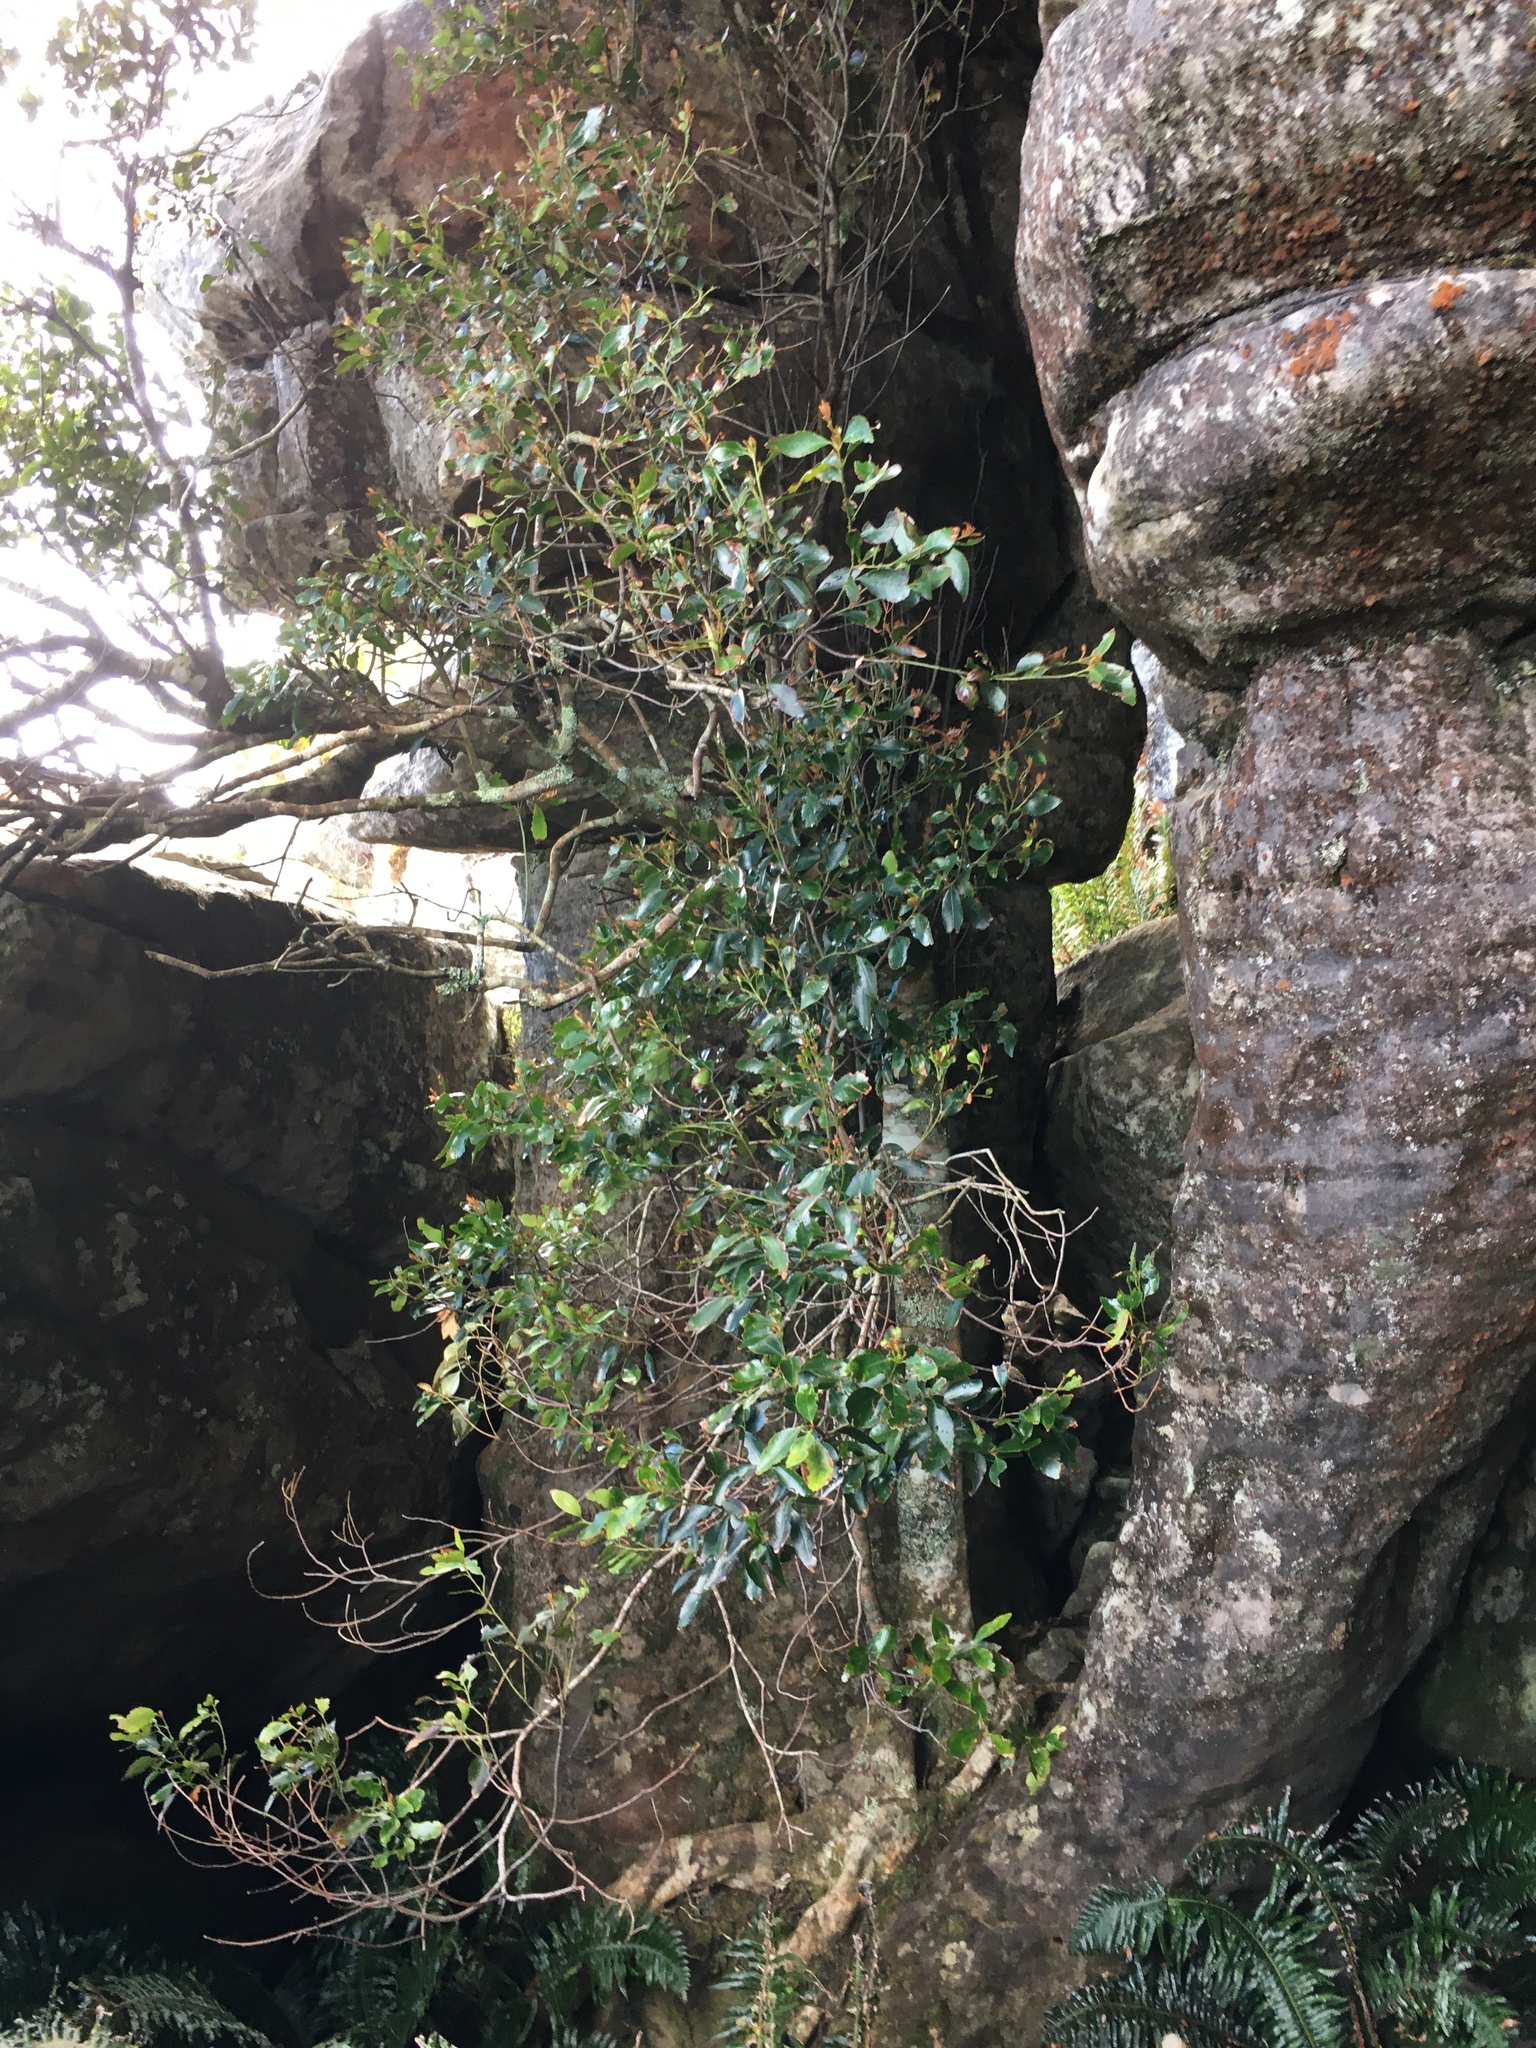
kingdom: Plantae
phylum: Tracheophyta
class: Magnoliopsida
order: Celastrales
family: Celastraceae
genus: Elaeodendron
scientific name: Elaeodendron schinoides
